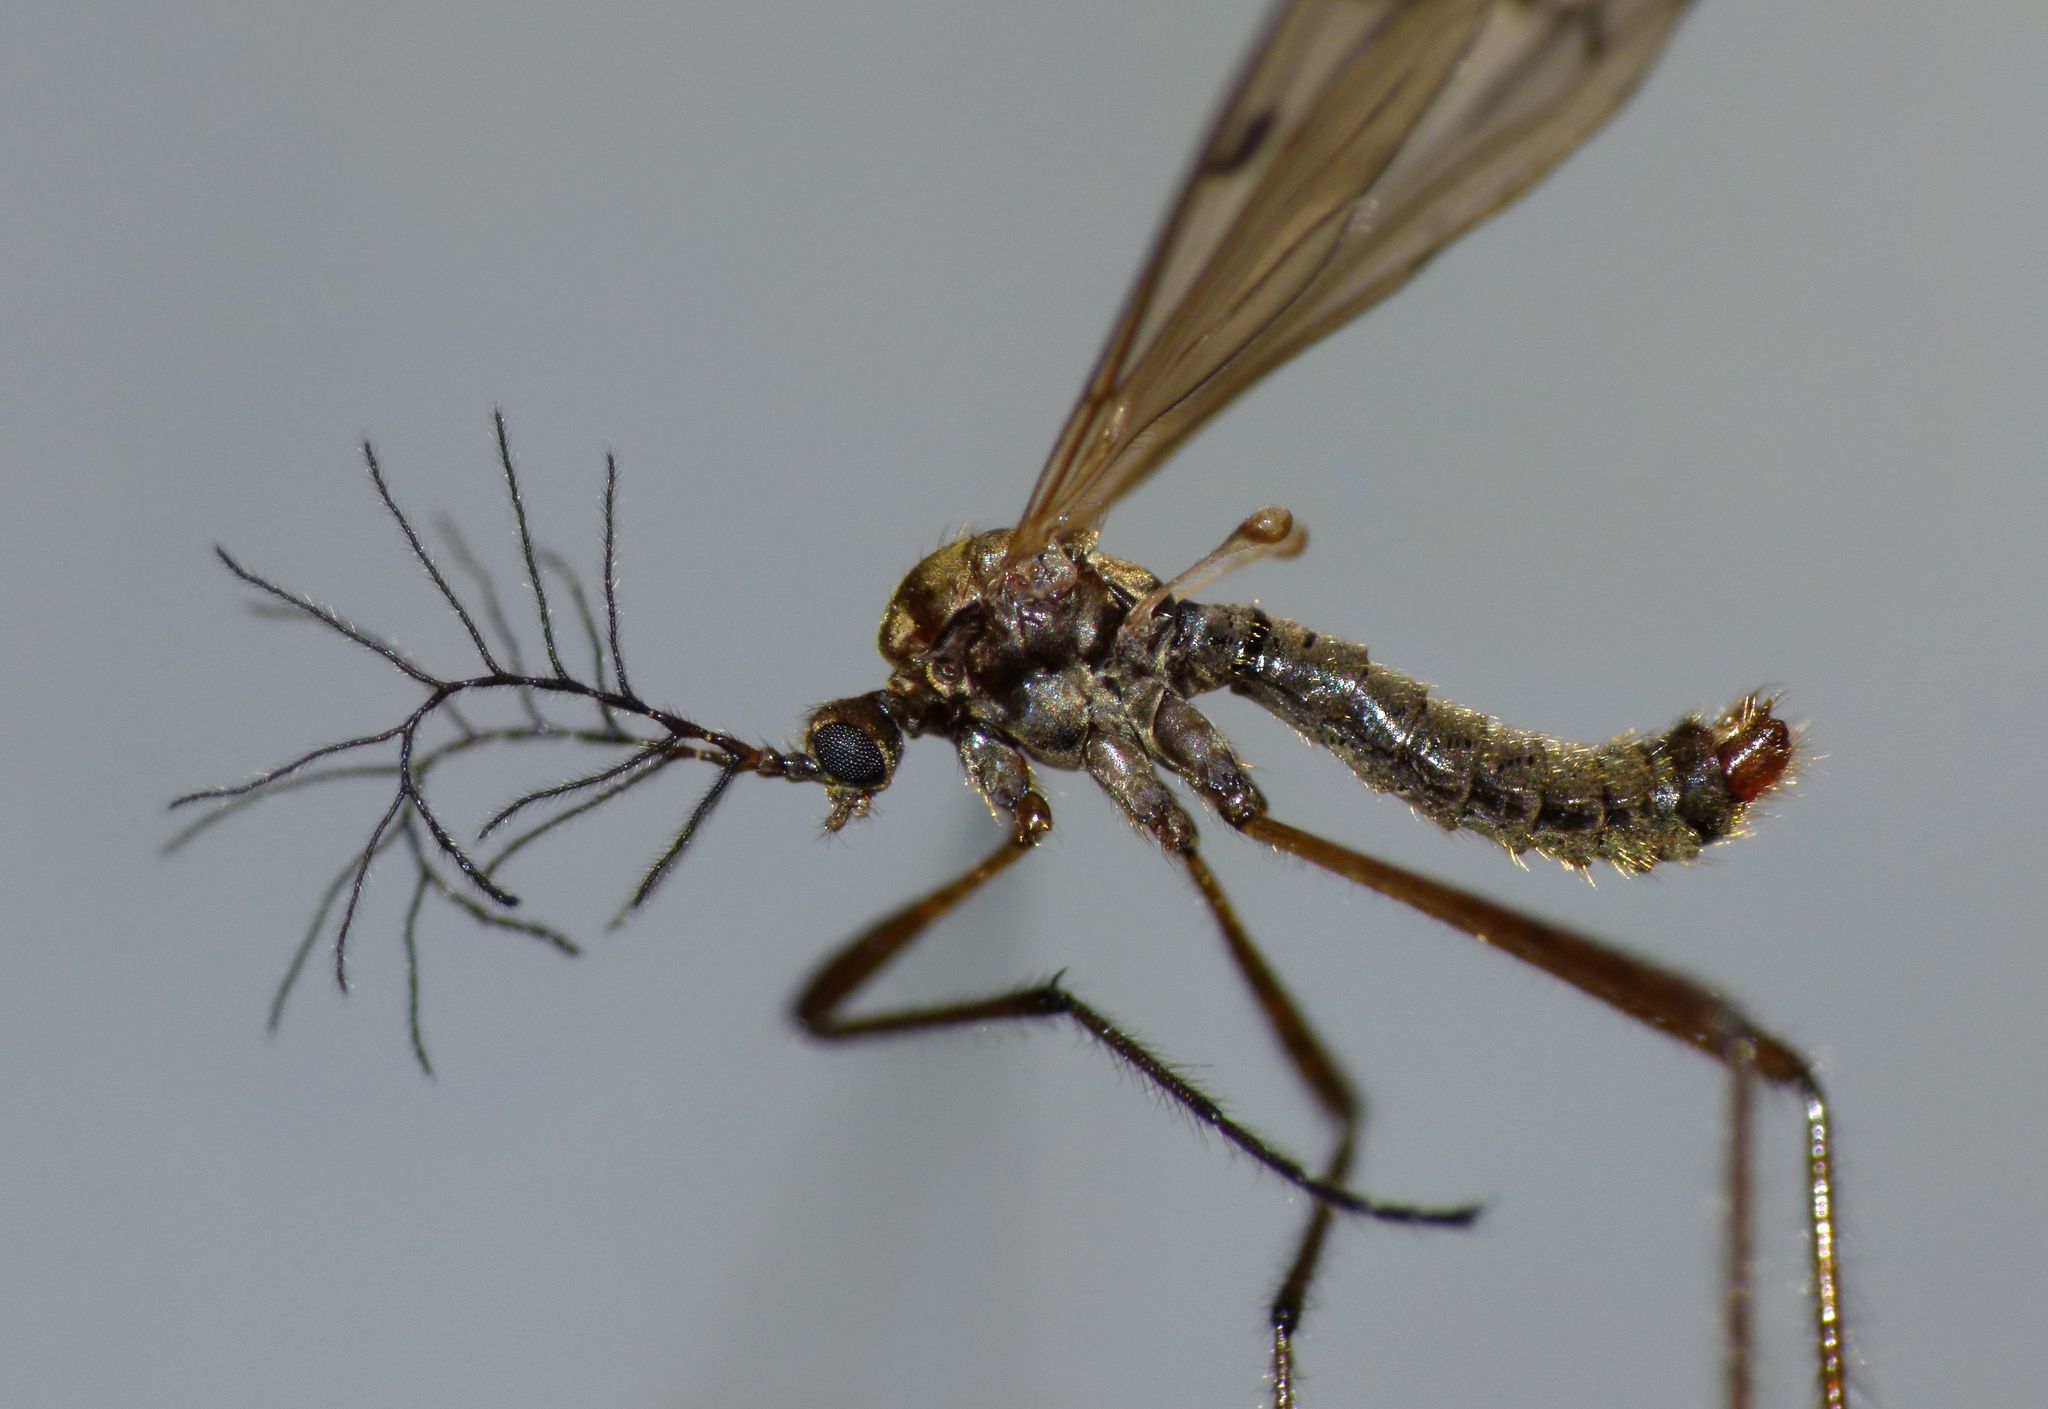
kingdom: Animalia
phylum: Arthropoda
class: Insecta
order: Diptera
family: Limoniidae
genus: Gynoplistia
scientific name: Gynoplistia otagana
